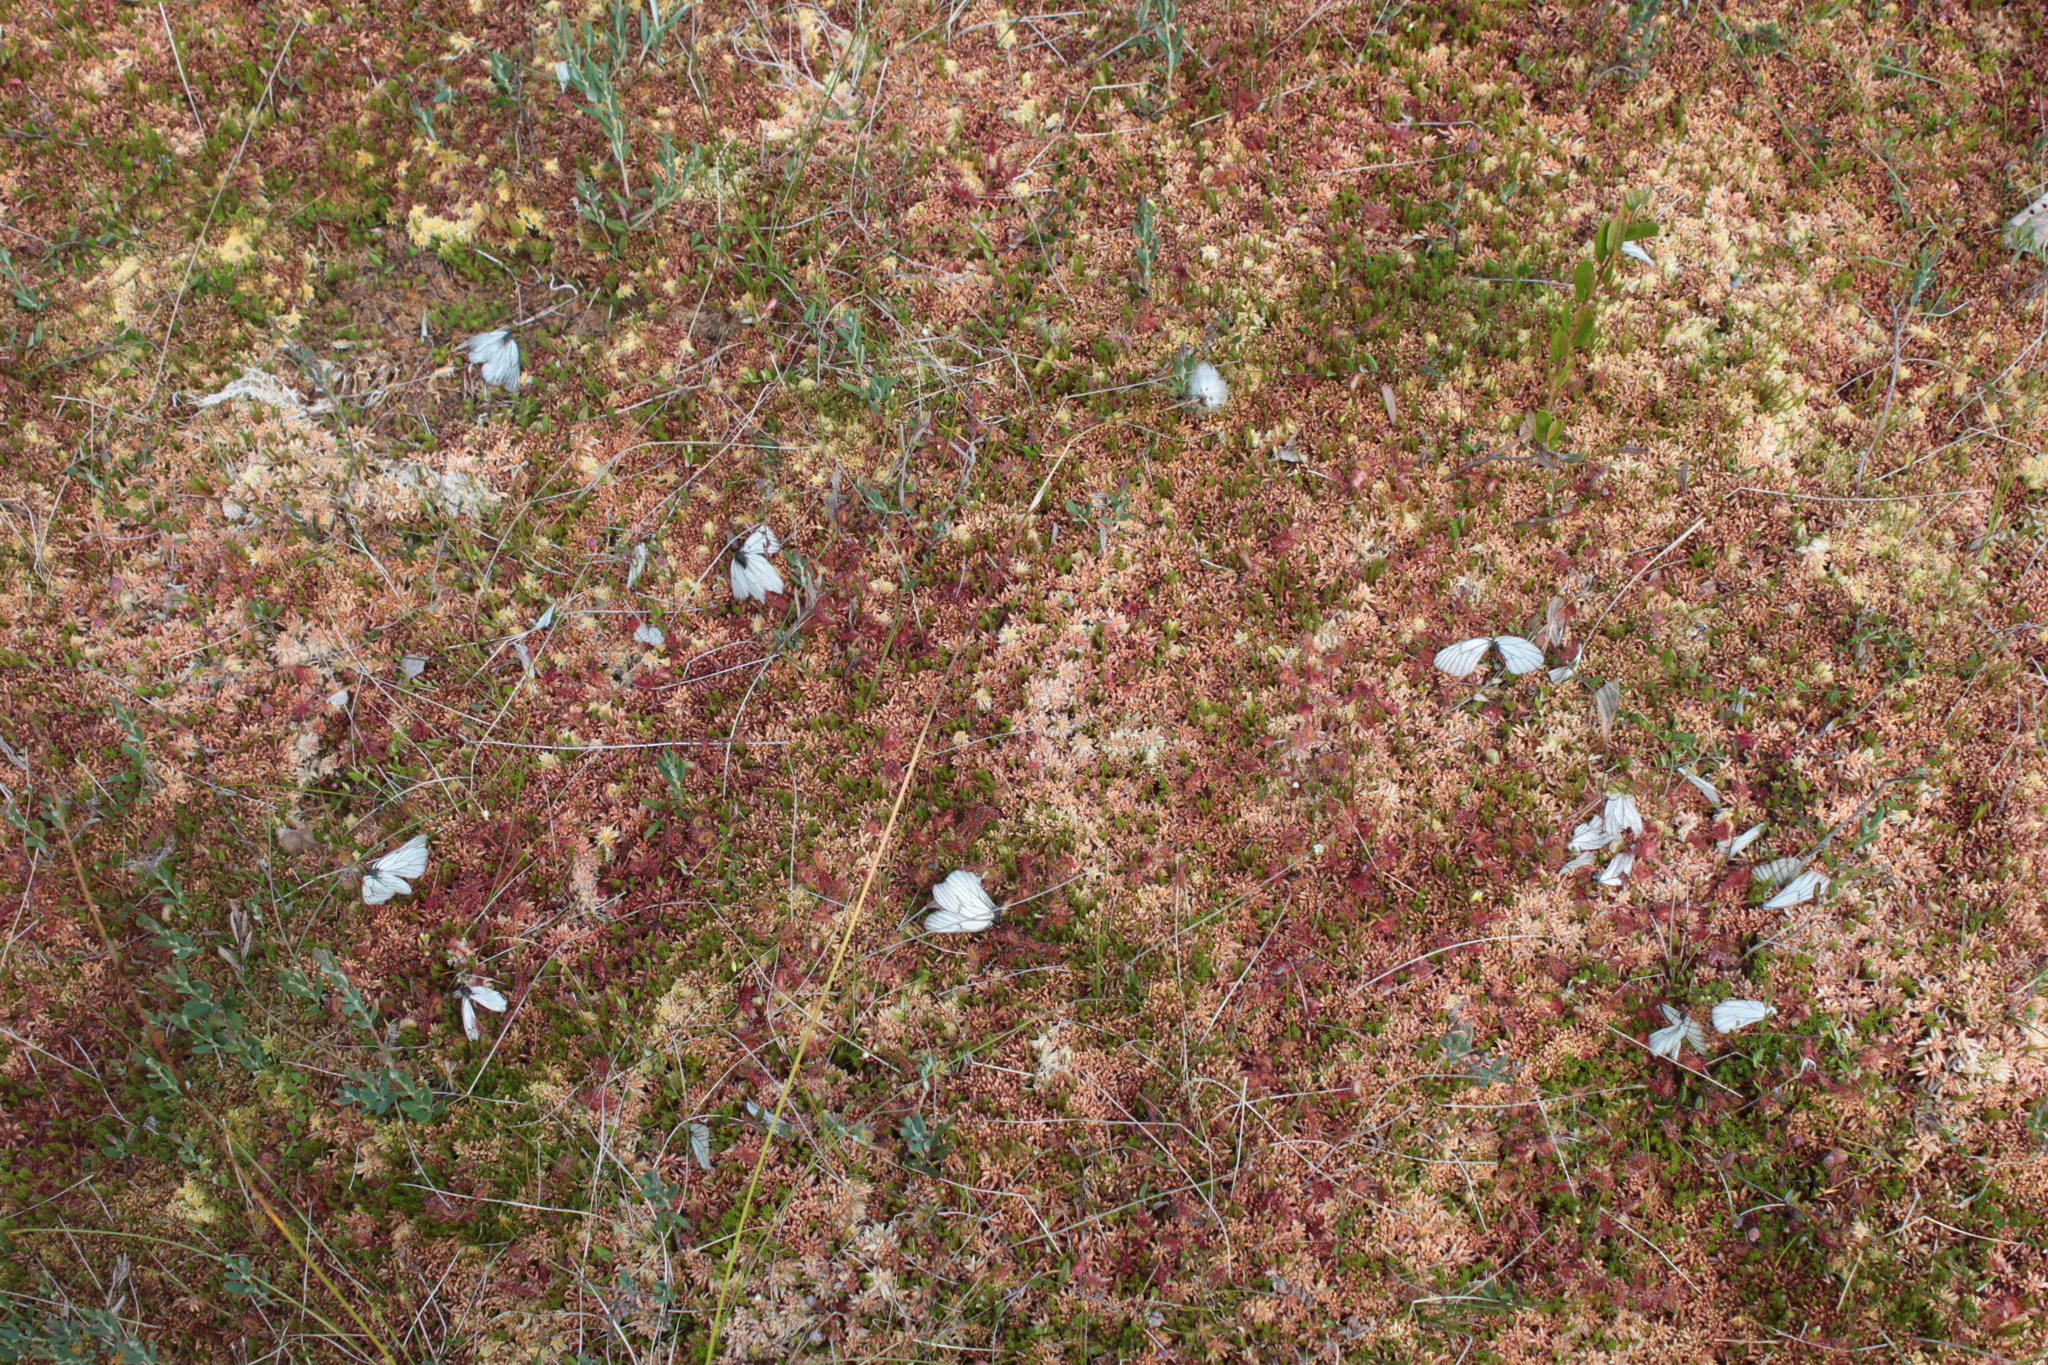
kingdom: Animalia
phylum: Arthropoda
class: Insecta
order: Lepidoptera
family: Pieridae
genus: Aporia
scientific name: Aporia crataegi
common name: Black-veined white
